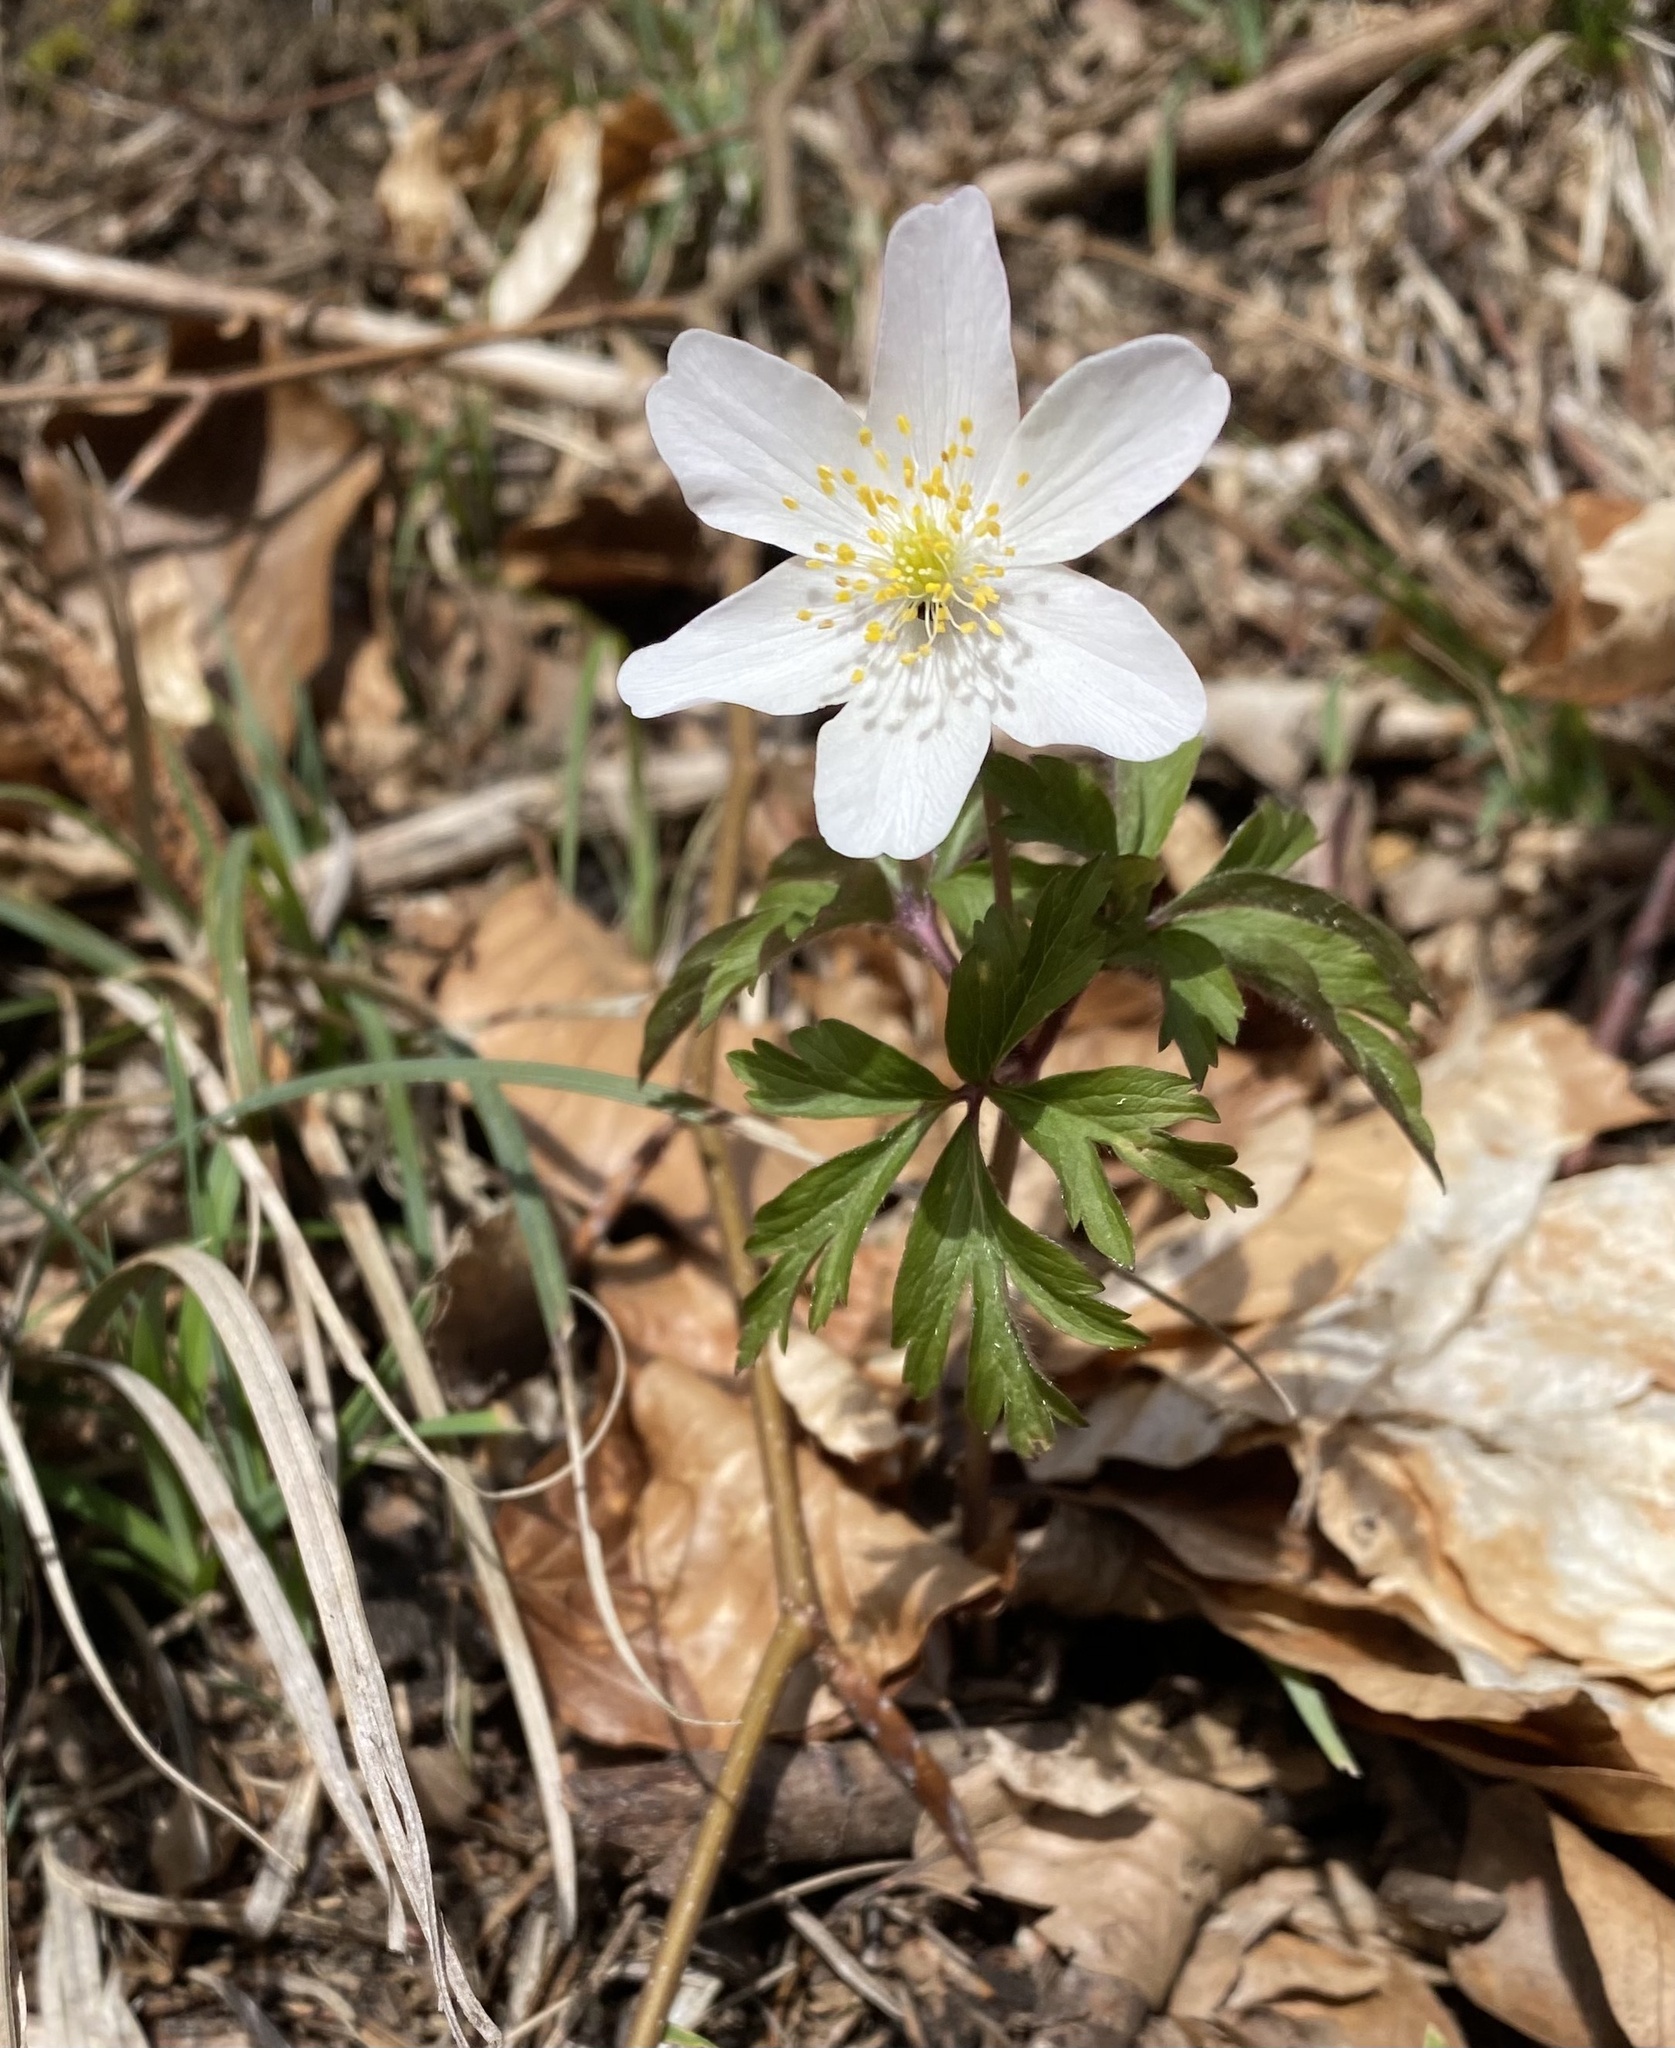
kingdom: Plantae
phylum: Tracheophyta
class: Magnoliopsida
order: Ranunculales
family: Ranunculaceae
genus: Anemone
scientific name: Anemone nemorosa
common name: Wood anemone
